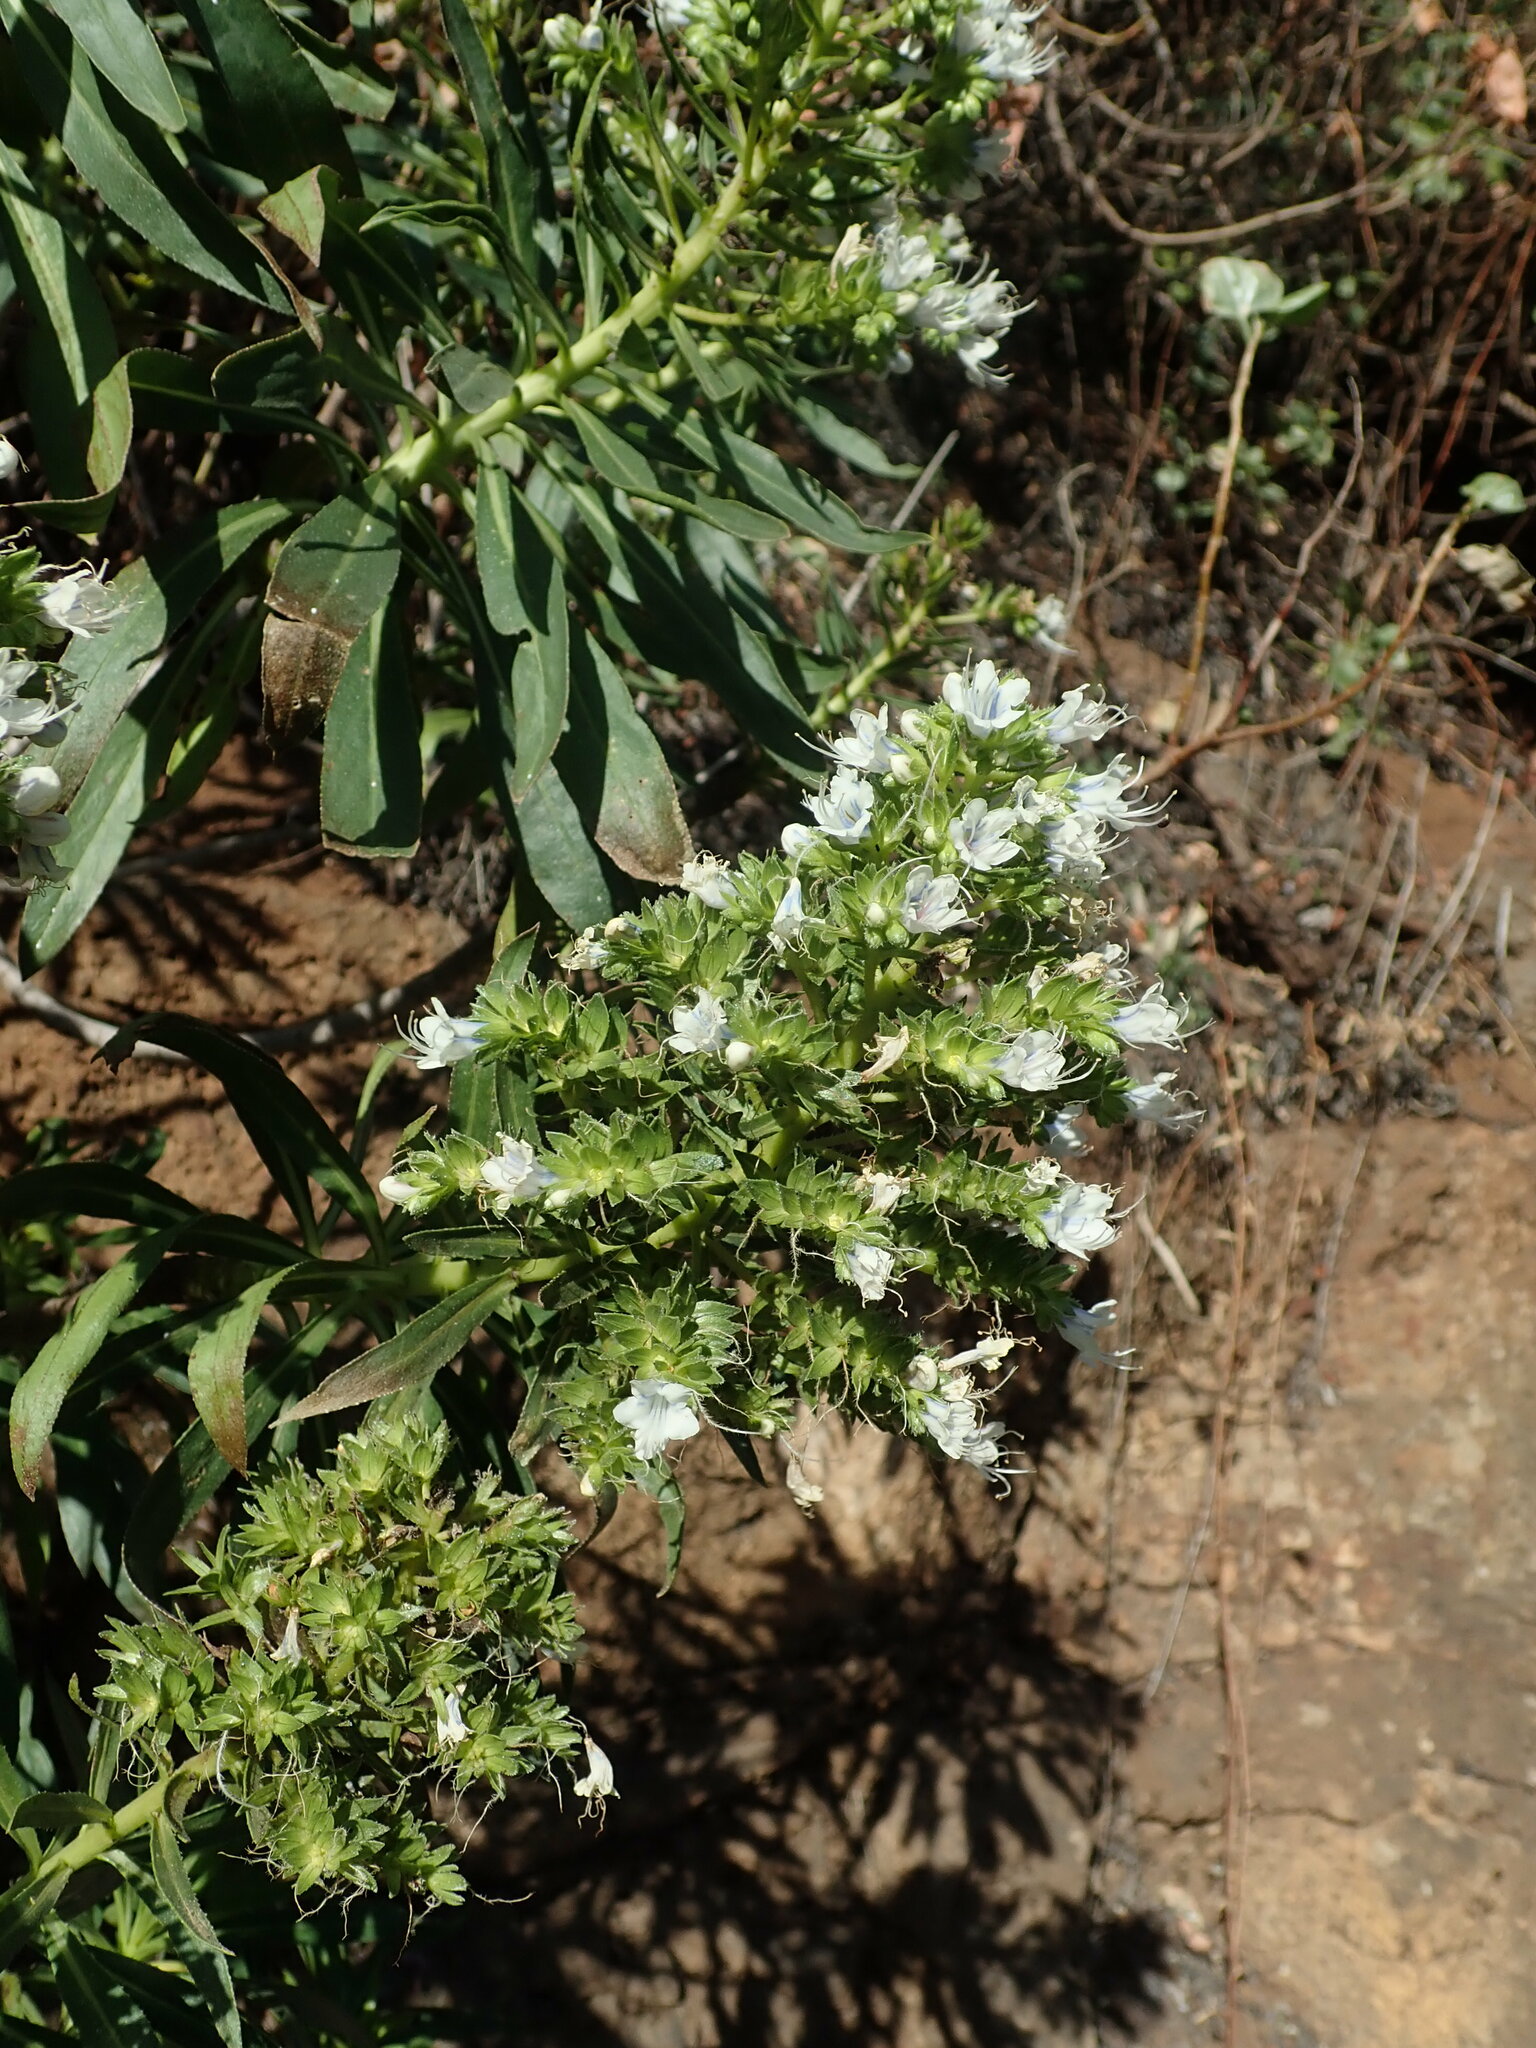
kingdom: Plantae
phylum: Tracheophyta
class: Magnoliopsida
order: Boraginales
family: Boraginaceae
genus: Echium
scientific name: Echium decaisnei
